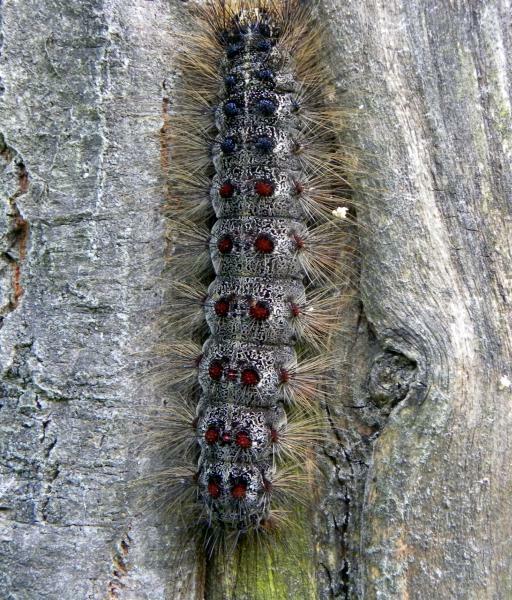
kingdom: Animalia
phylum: Arthropoda
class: Insecta
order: Lepidoptera
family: Erebidae
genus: Lymantria
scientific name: Lymantria dispar
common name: Gypsy moth
